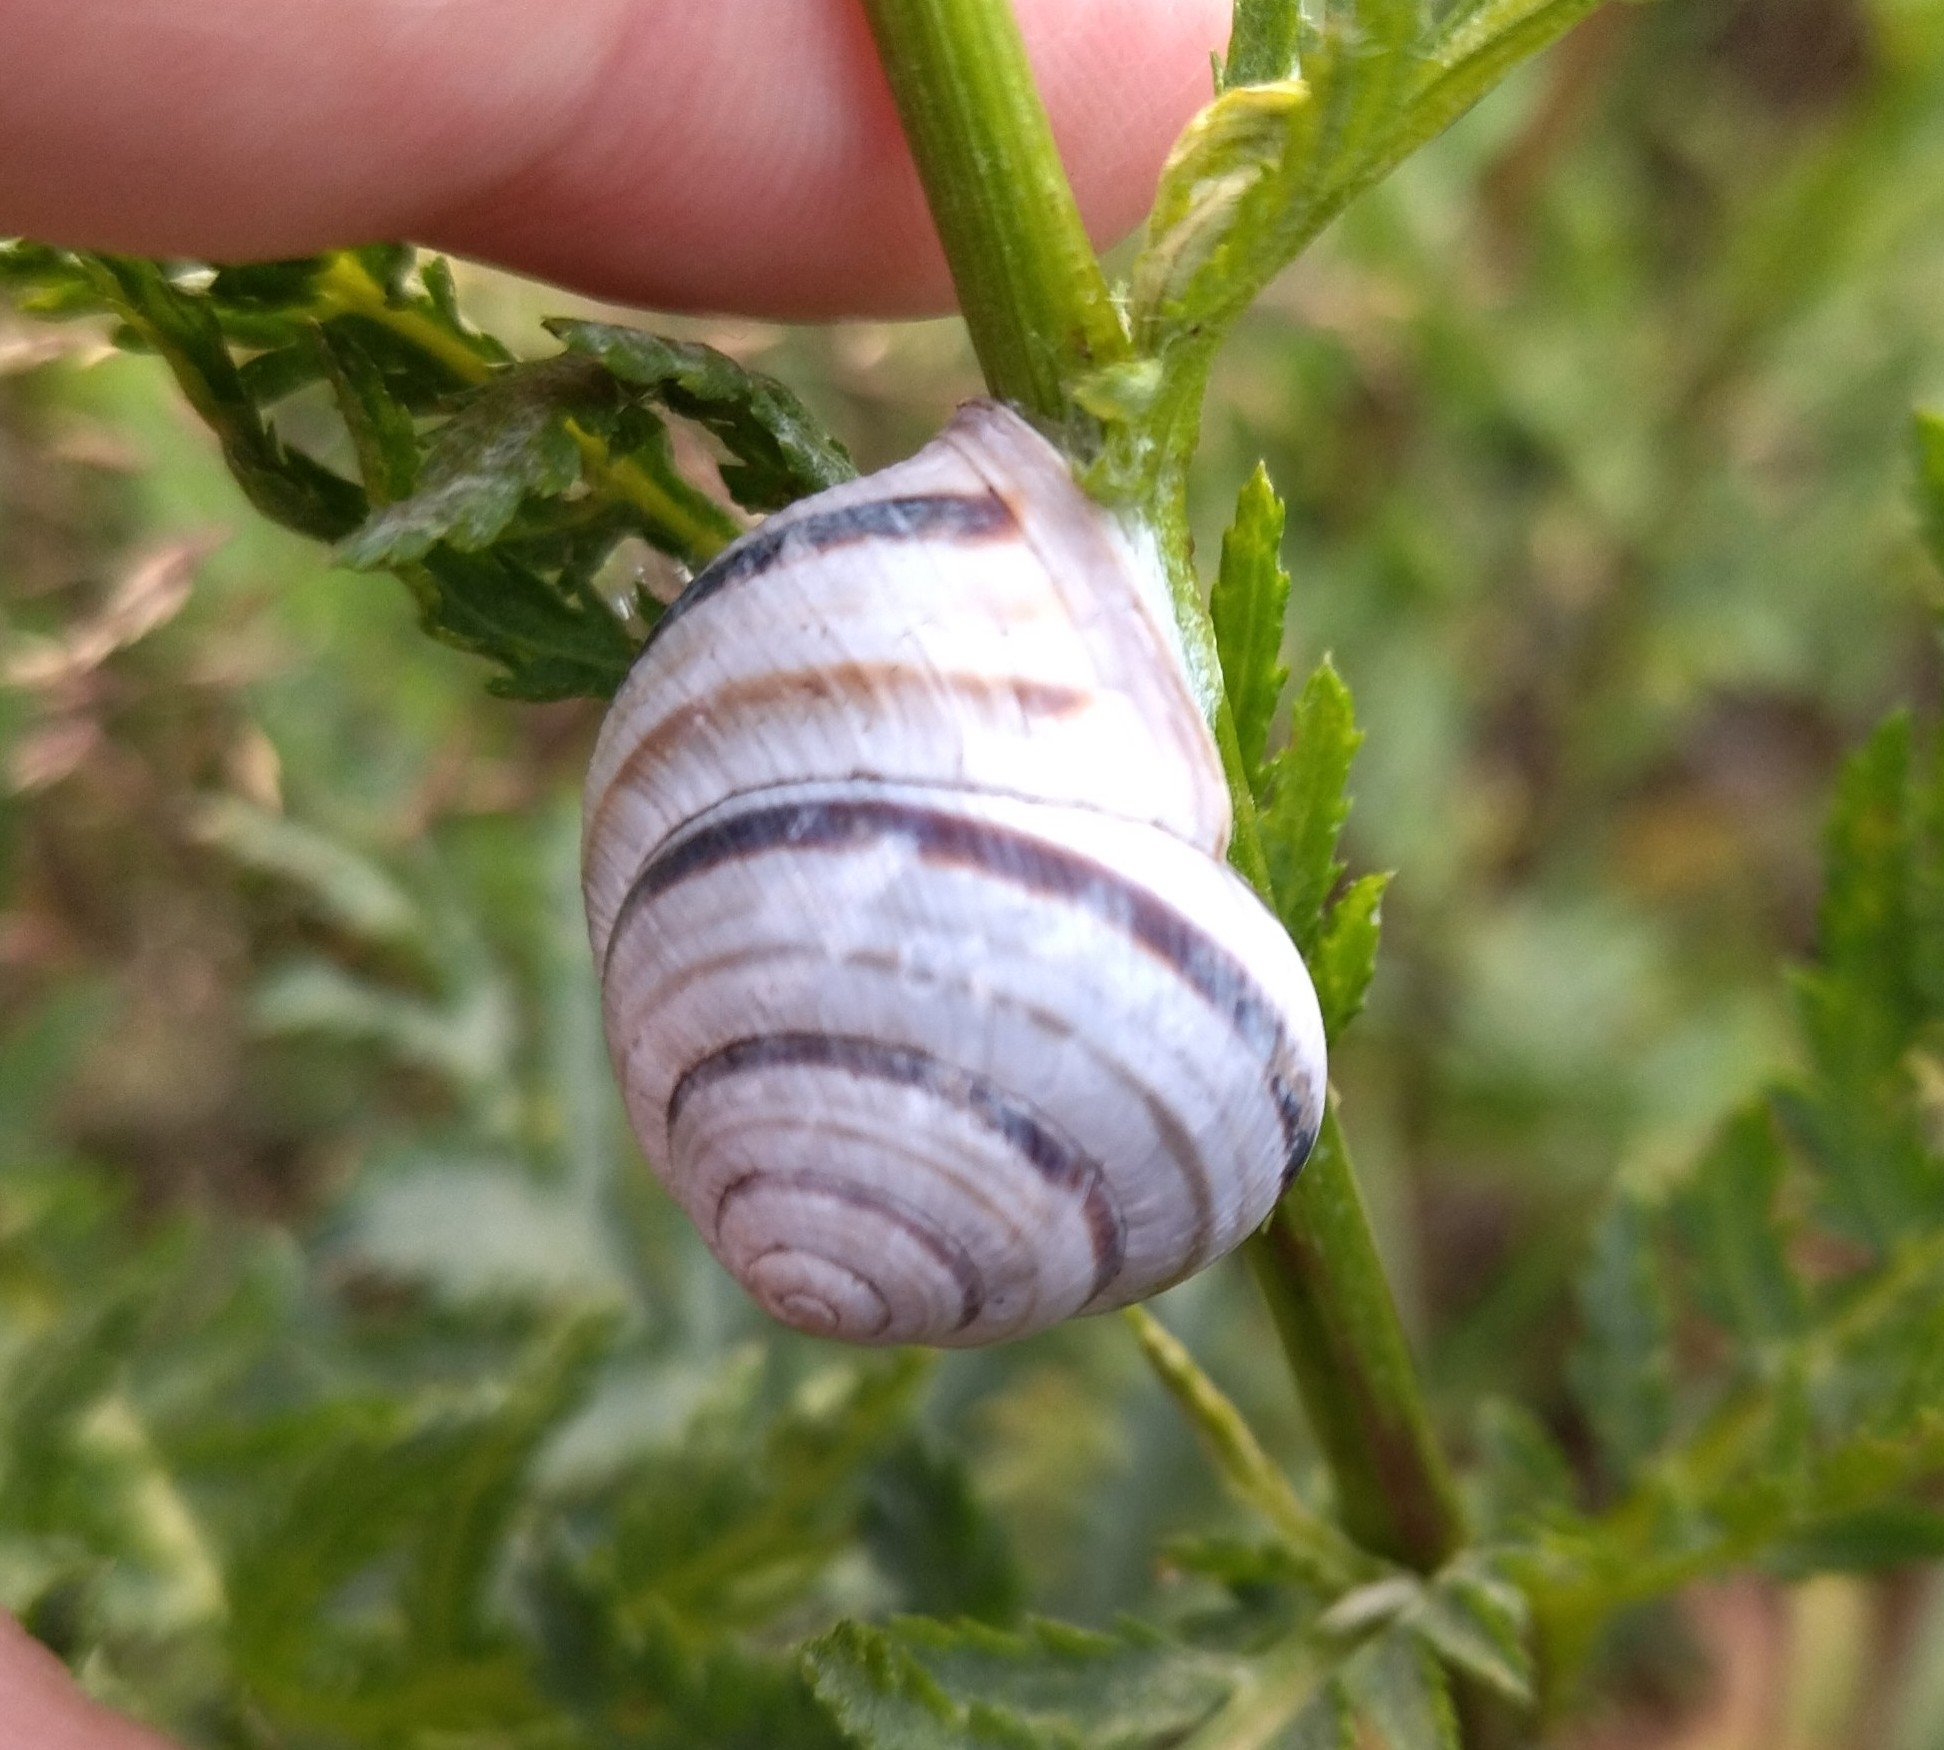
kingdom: Animalia
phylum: Mollusca
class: Gastropoda
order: Stylommatophora
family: Helicidae
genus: Caucasotachea
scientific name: Caucasotachea vindobonensis
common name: European helicid land snail
